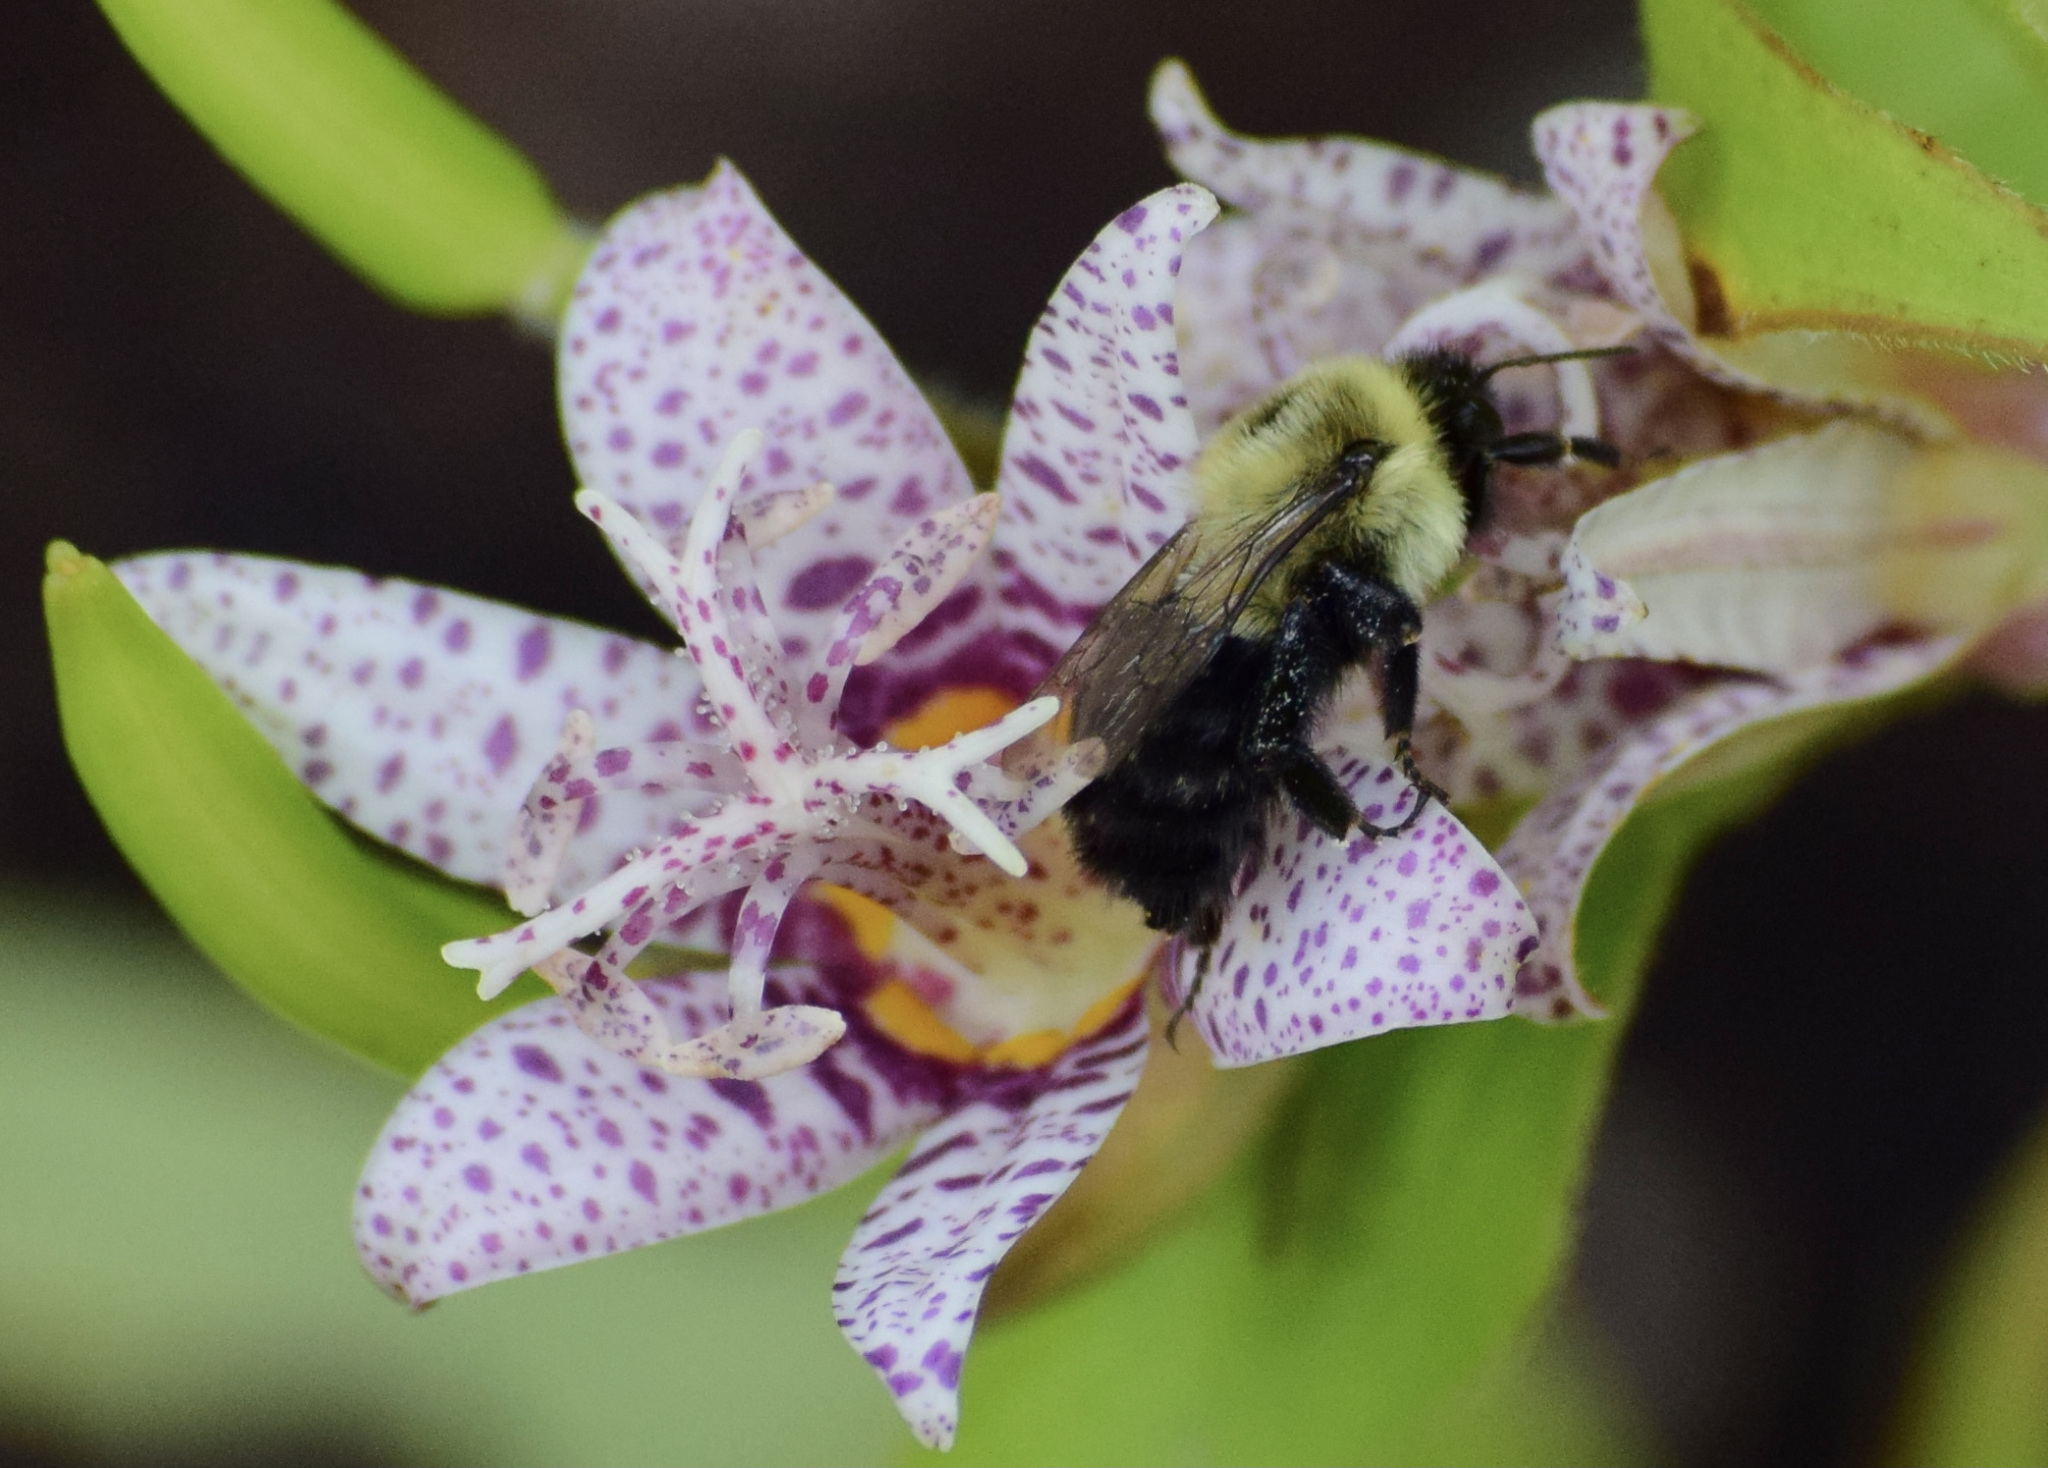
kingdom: Animalia
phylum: Arthropoda
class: Insecta
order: Hymenoptera
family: Apidae
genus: Bombus
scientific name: Bombus impatiens
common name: Common eastern bumble bee
